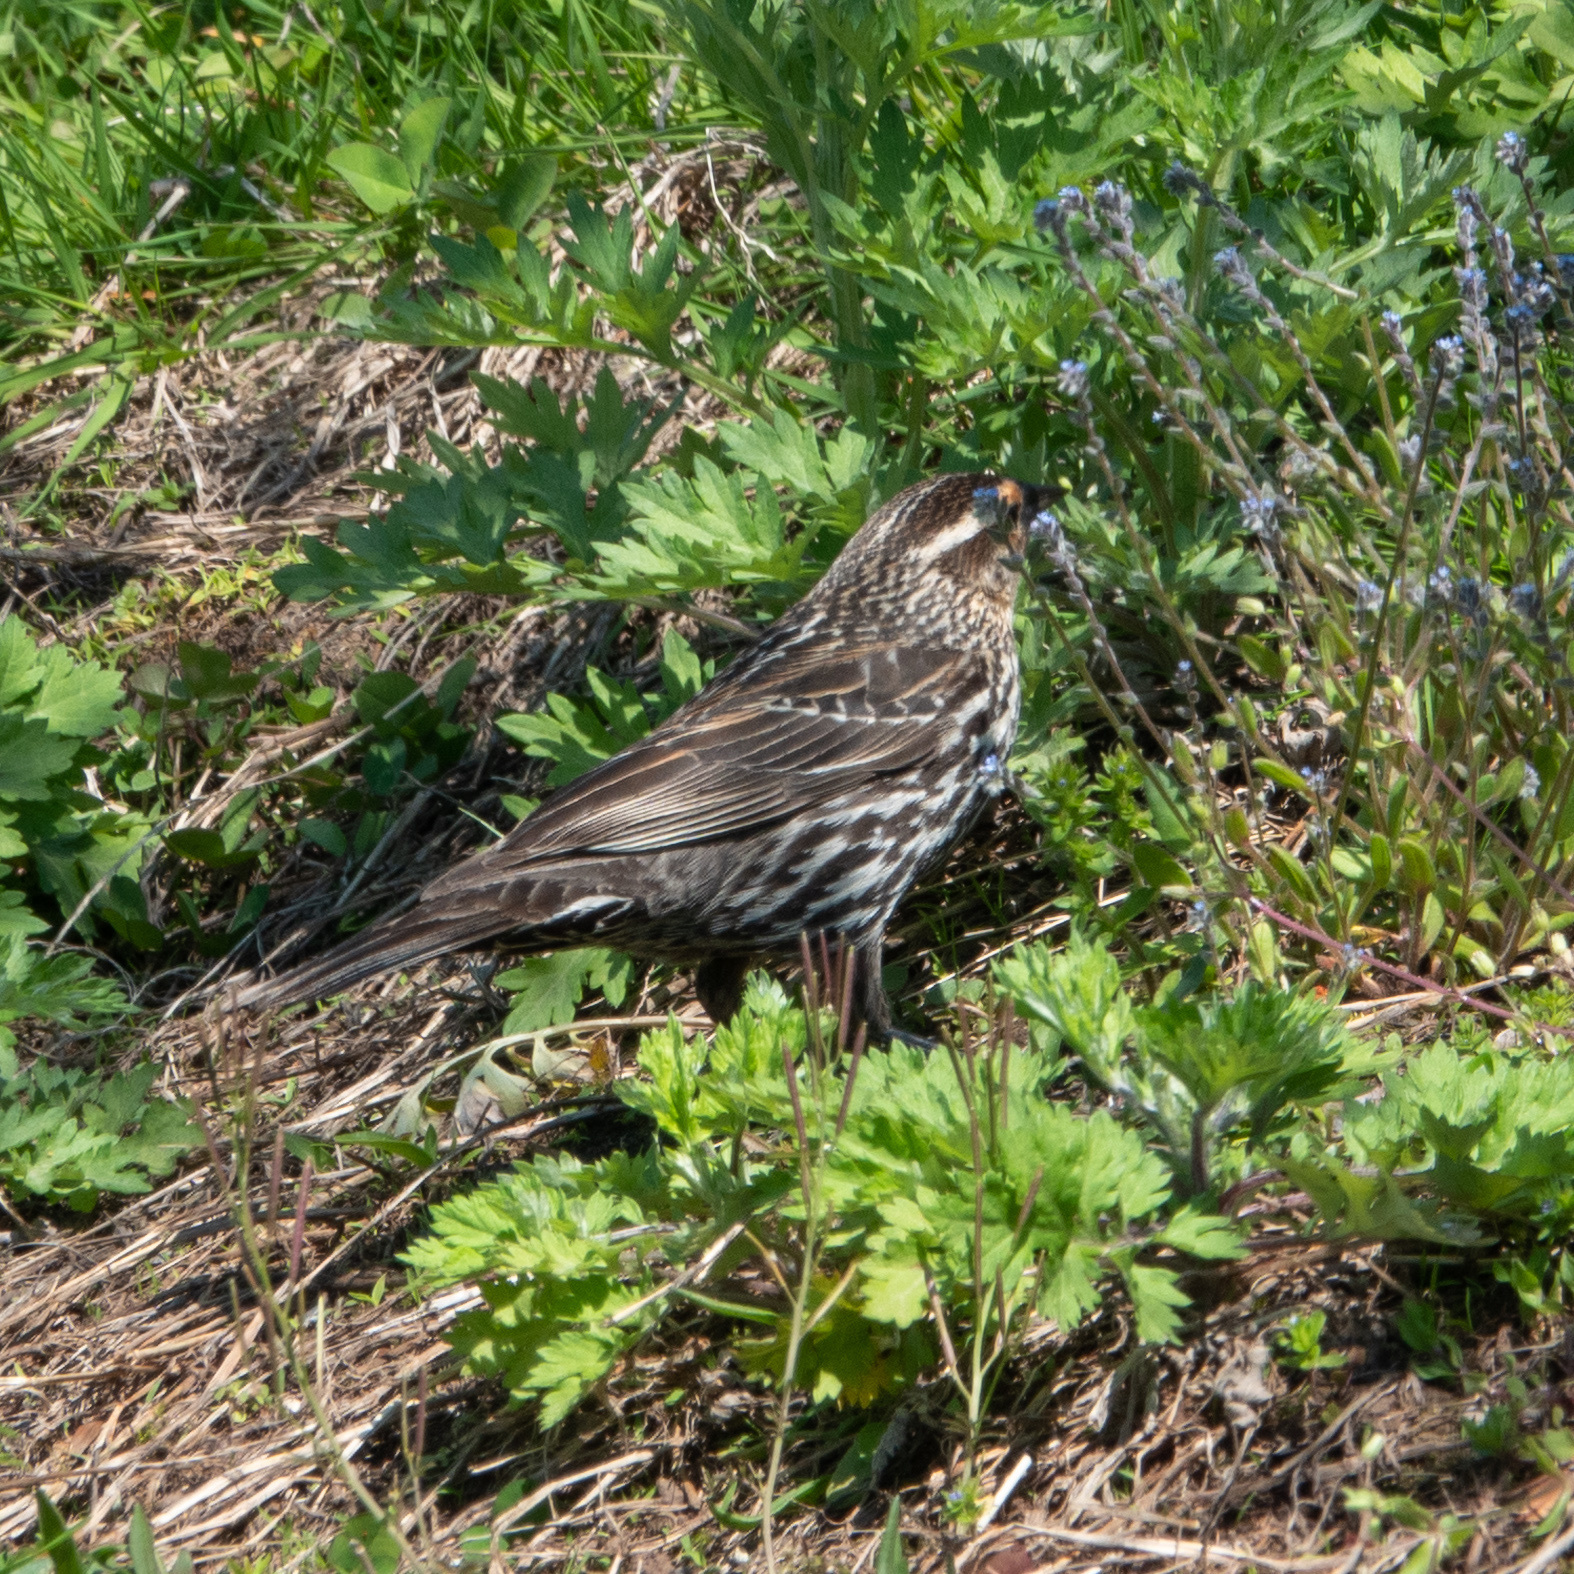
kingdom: Animalia
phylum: Chordata
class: Aves
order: Passeriformes
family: Icteridae
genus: Agelaius
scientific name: Agelaius phoeniceus
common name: Red-winged blackbird
